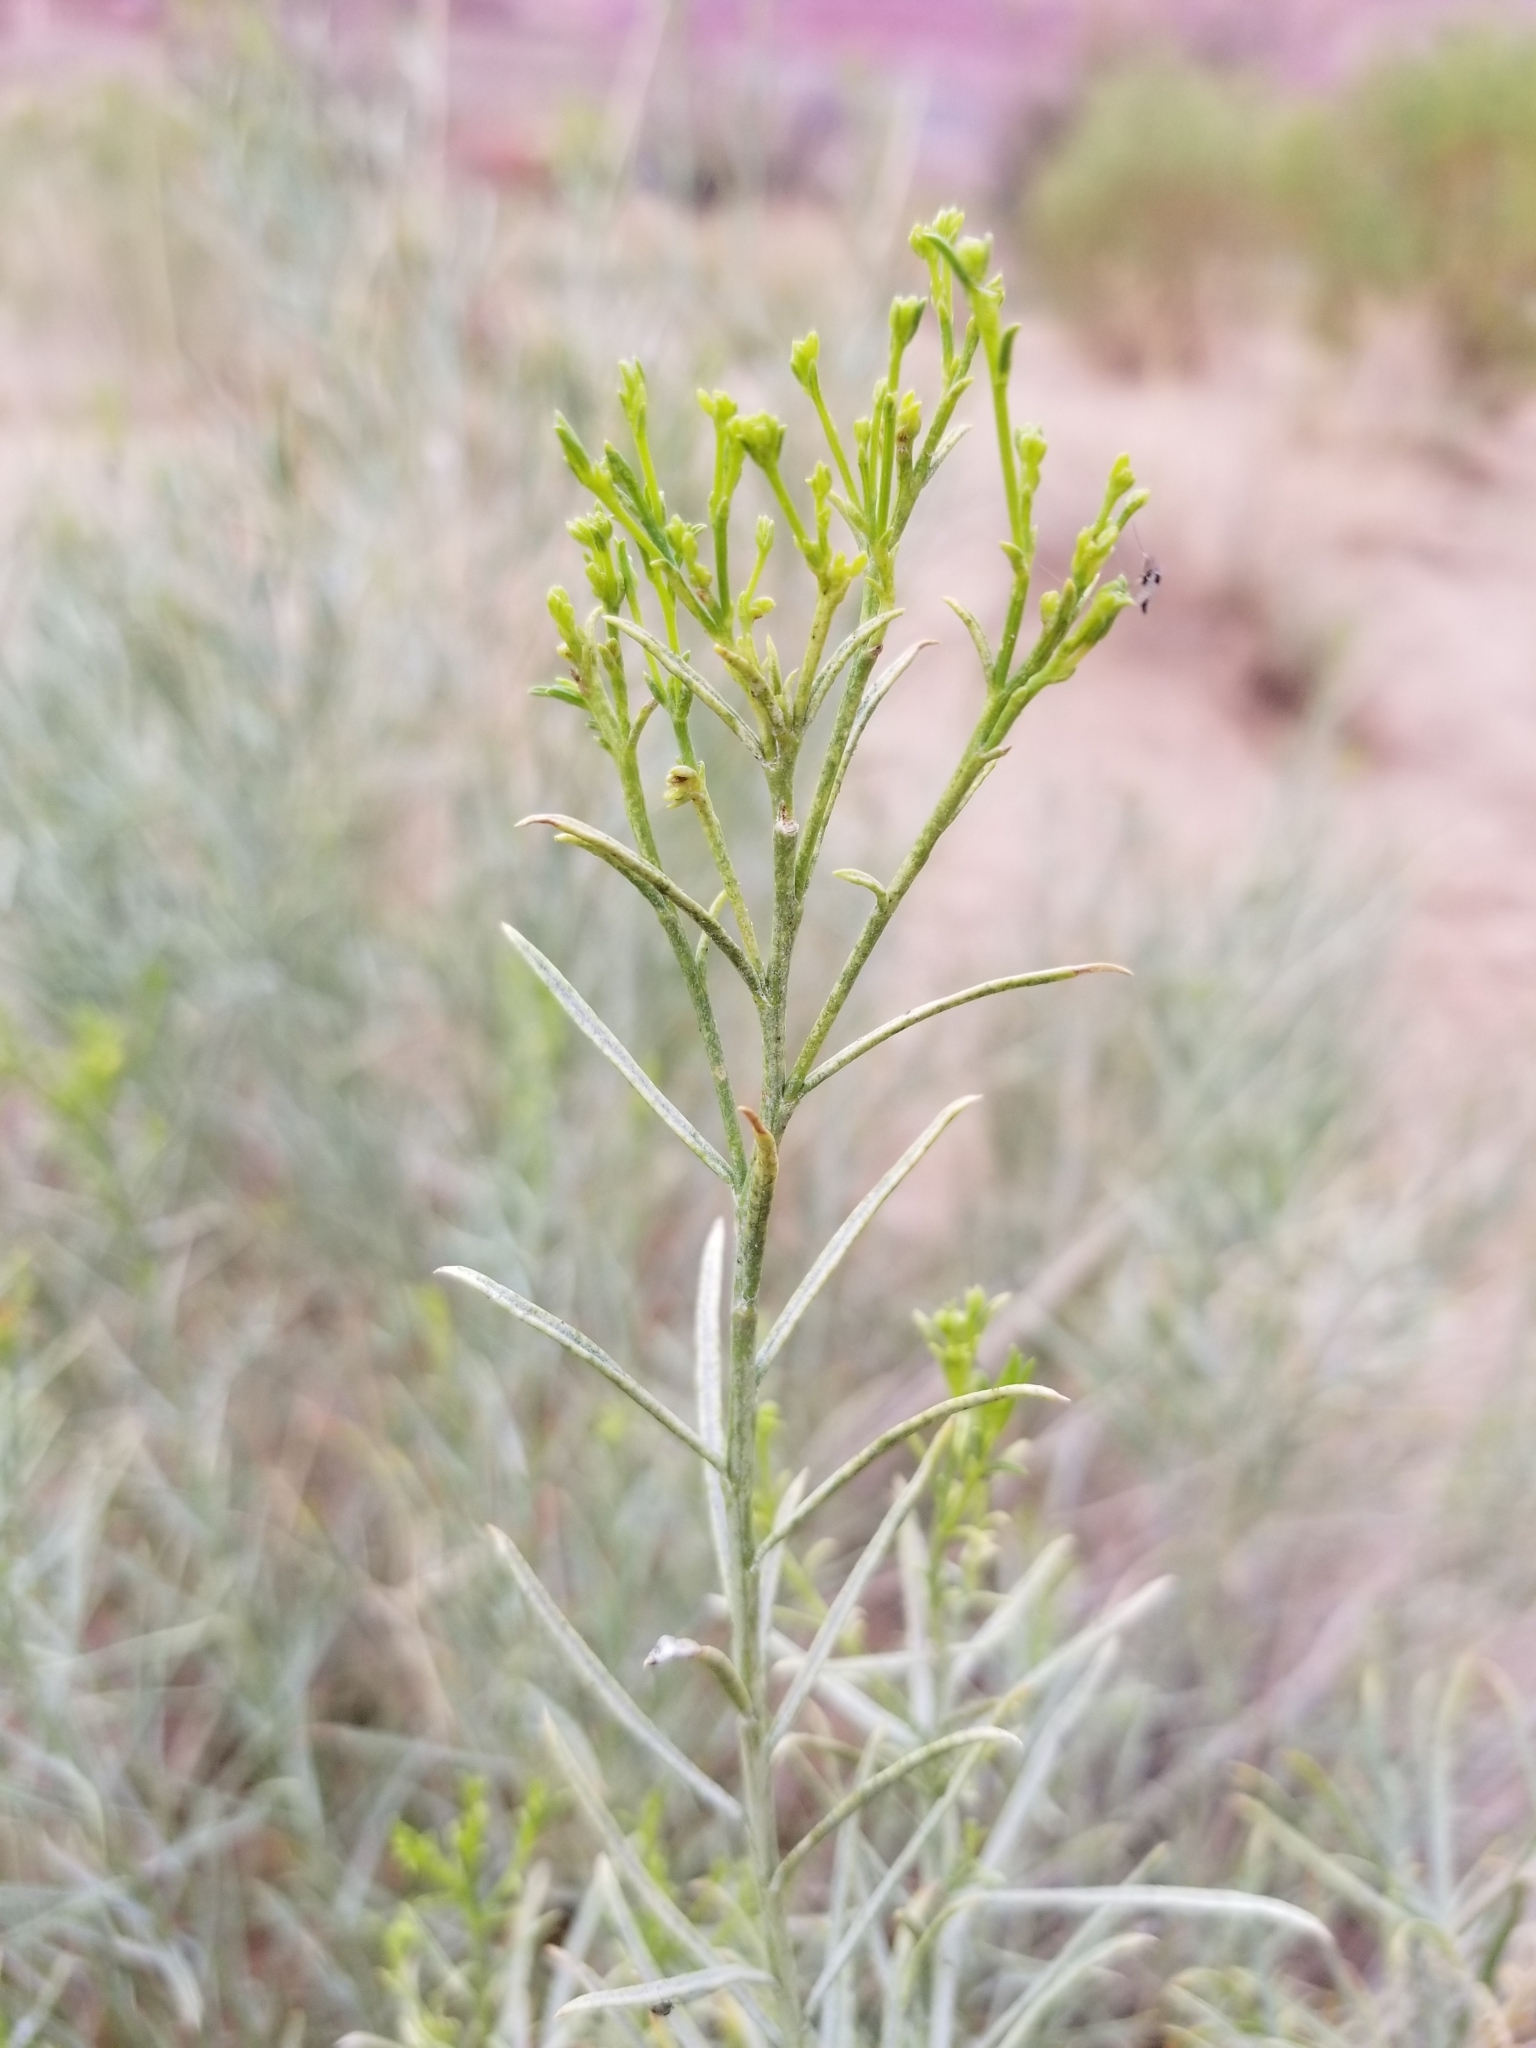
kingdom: Plantae
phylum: Tracheophyta
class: Magnoliopsida
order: Asterales
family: Asteraceae
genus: Ericameria
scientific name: Ericameria nauseosa
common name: Rubber rabbitbrush
